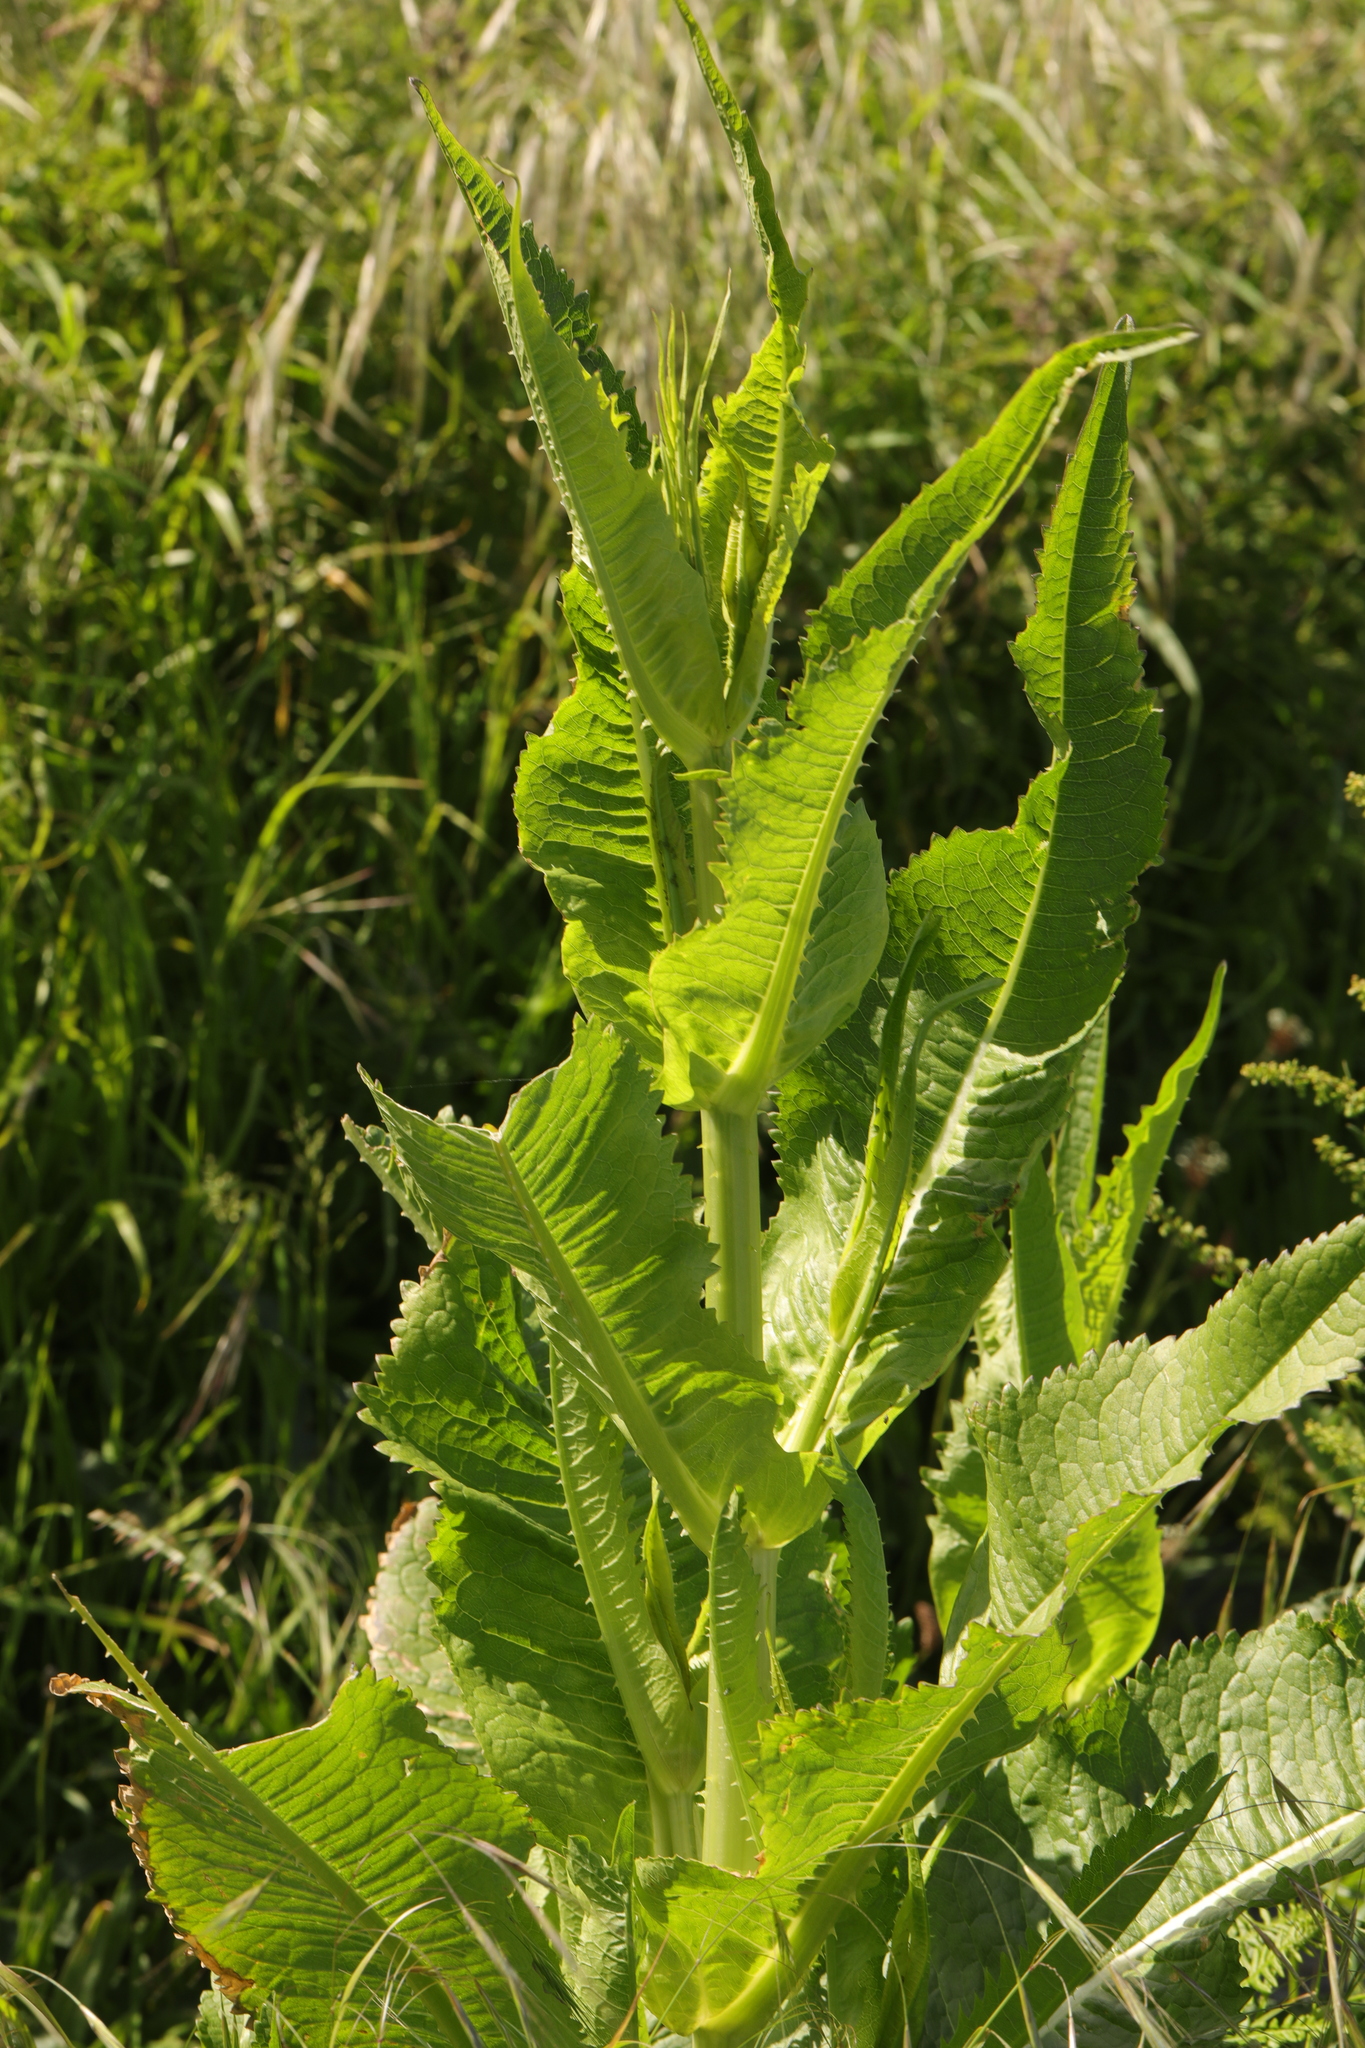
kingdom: Plantae
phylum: Tracheophyta
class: Magnoliopsida
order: Dipsacales
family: Caprifoliaceae
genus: Dipsacus
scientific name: Dipsacus fullonum
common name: Teasel
